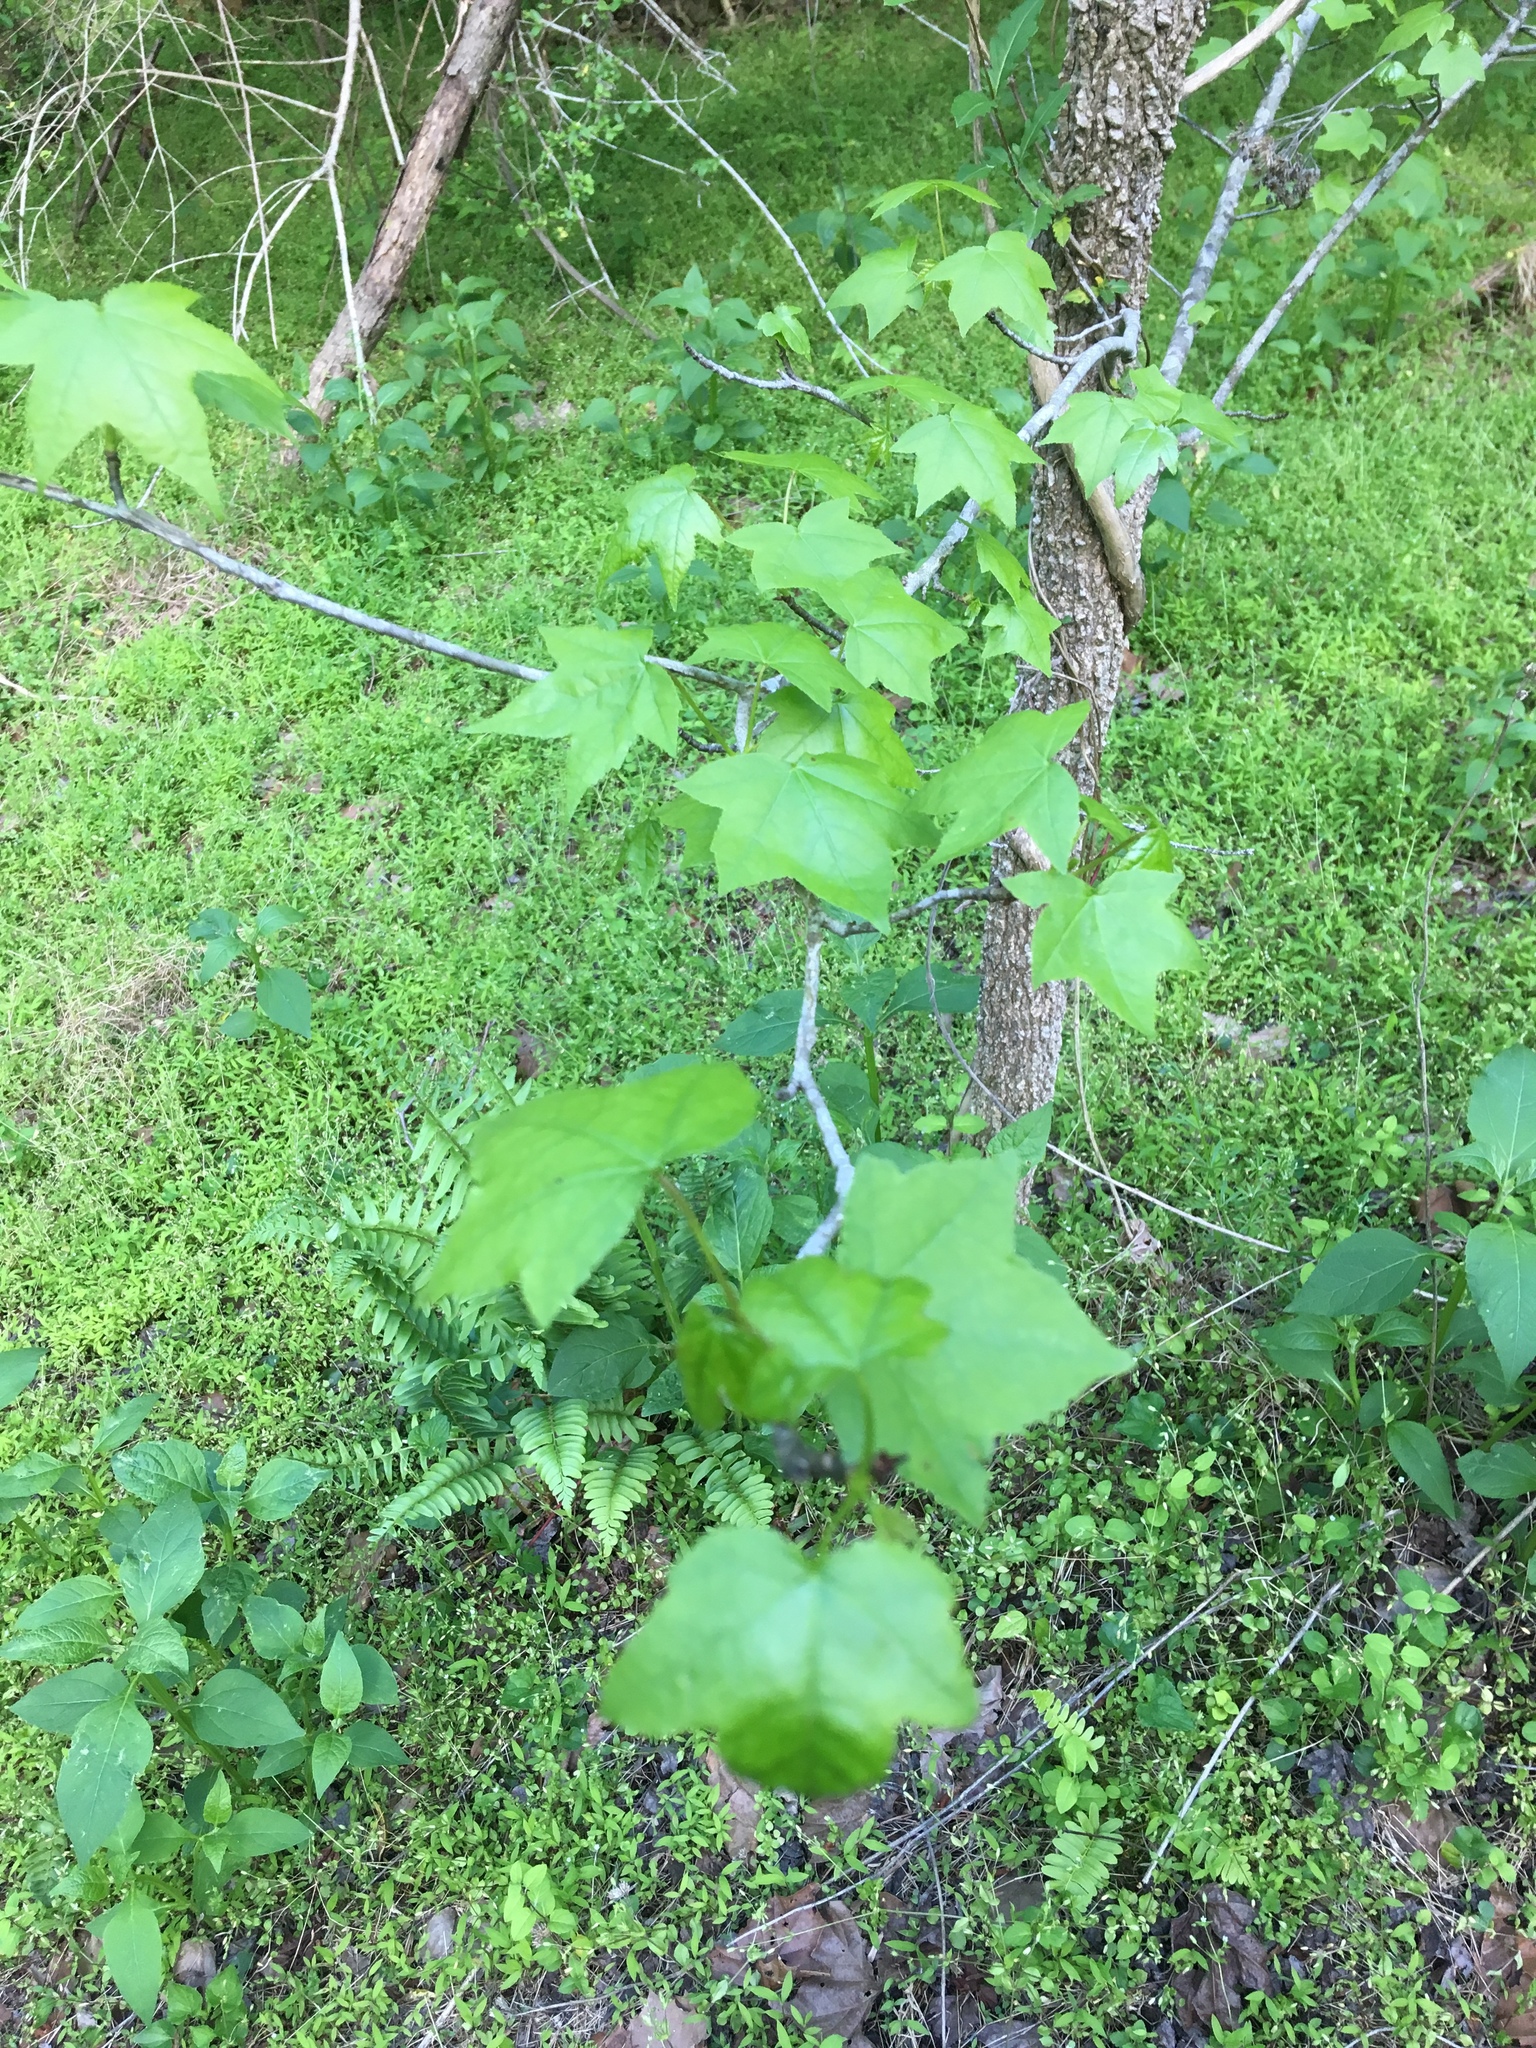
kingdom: Plantae
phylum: Tracheophyta
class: Magnoliopsida
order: Saxifragales
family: Altingiaceae
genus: Liquidambar
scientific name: Liquidambar styraciflua
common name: Sweet gum
